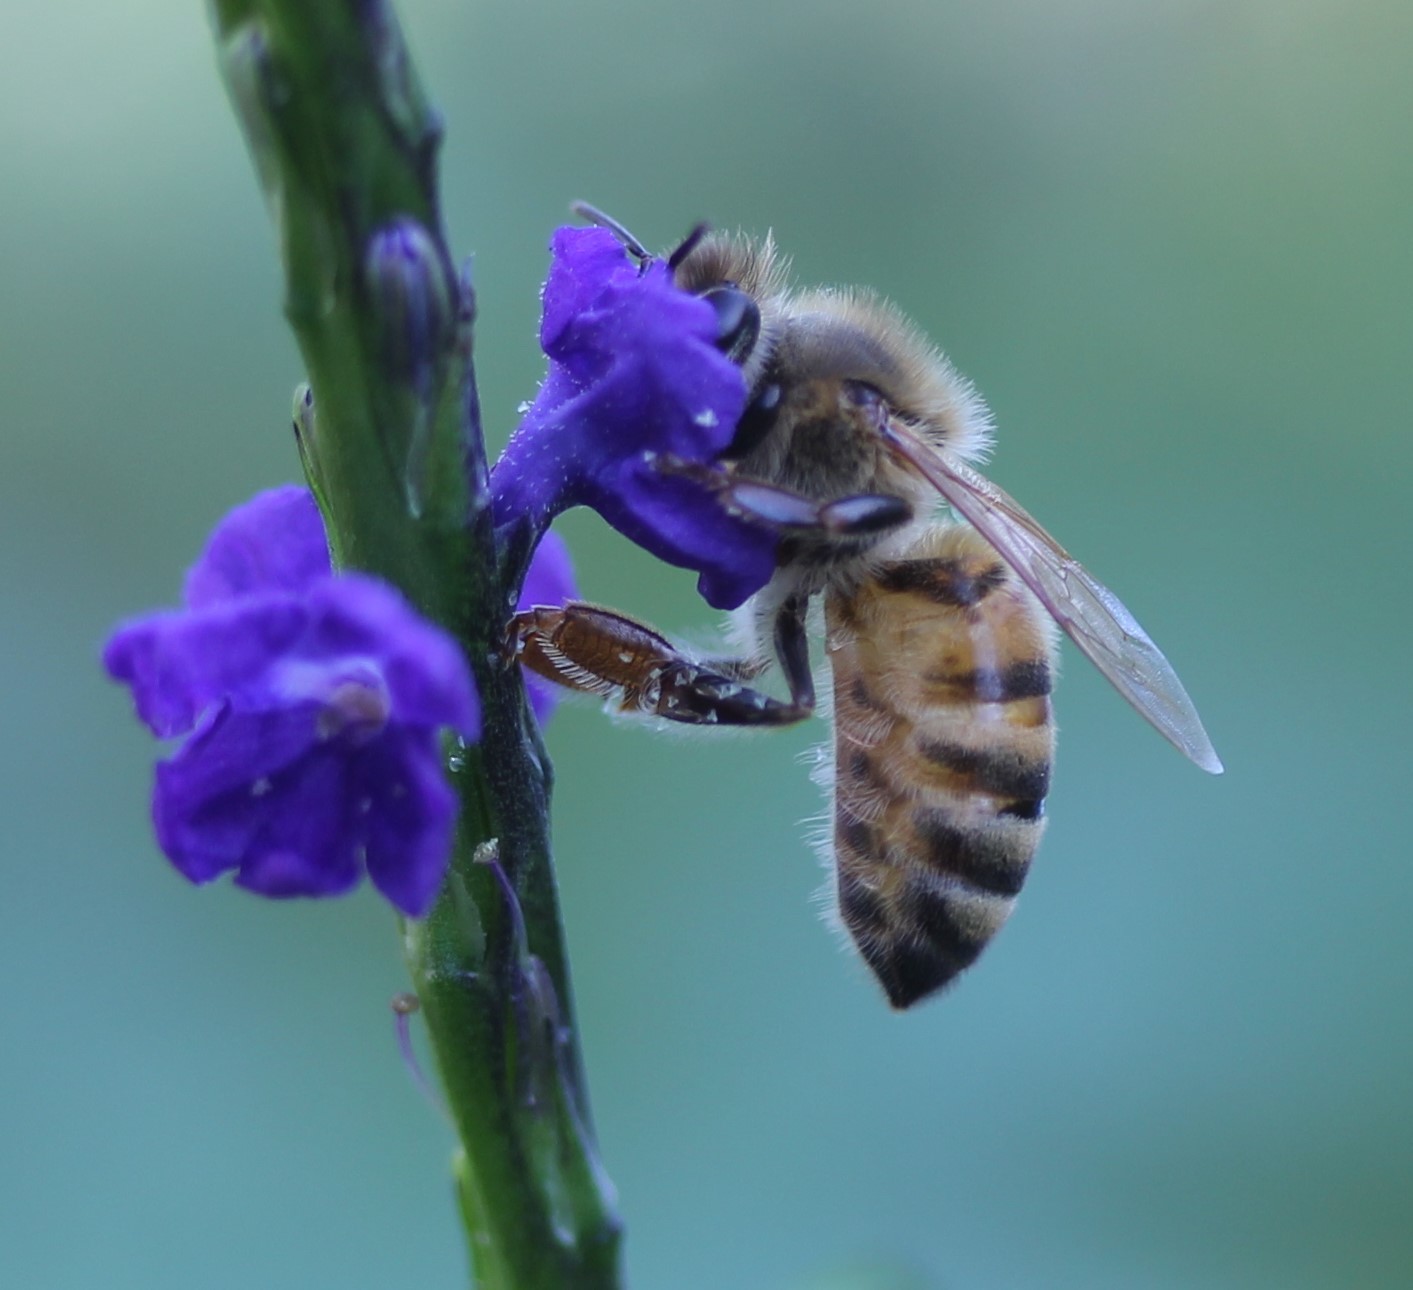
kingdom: Animalia
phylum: Arthropoda
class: Insecta
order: Hymenoptera
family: Apidae
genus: Apis
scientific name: Apis mellifera
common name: Honey bee
